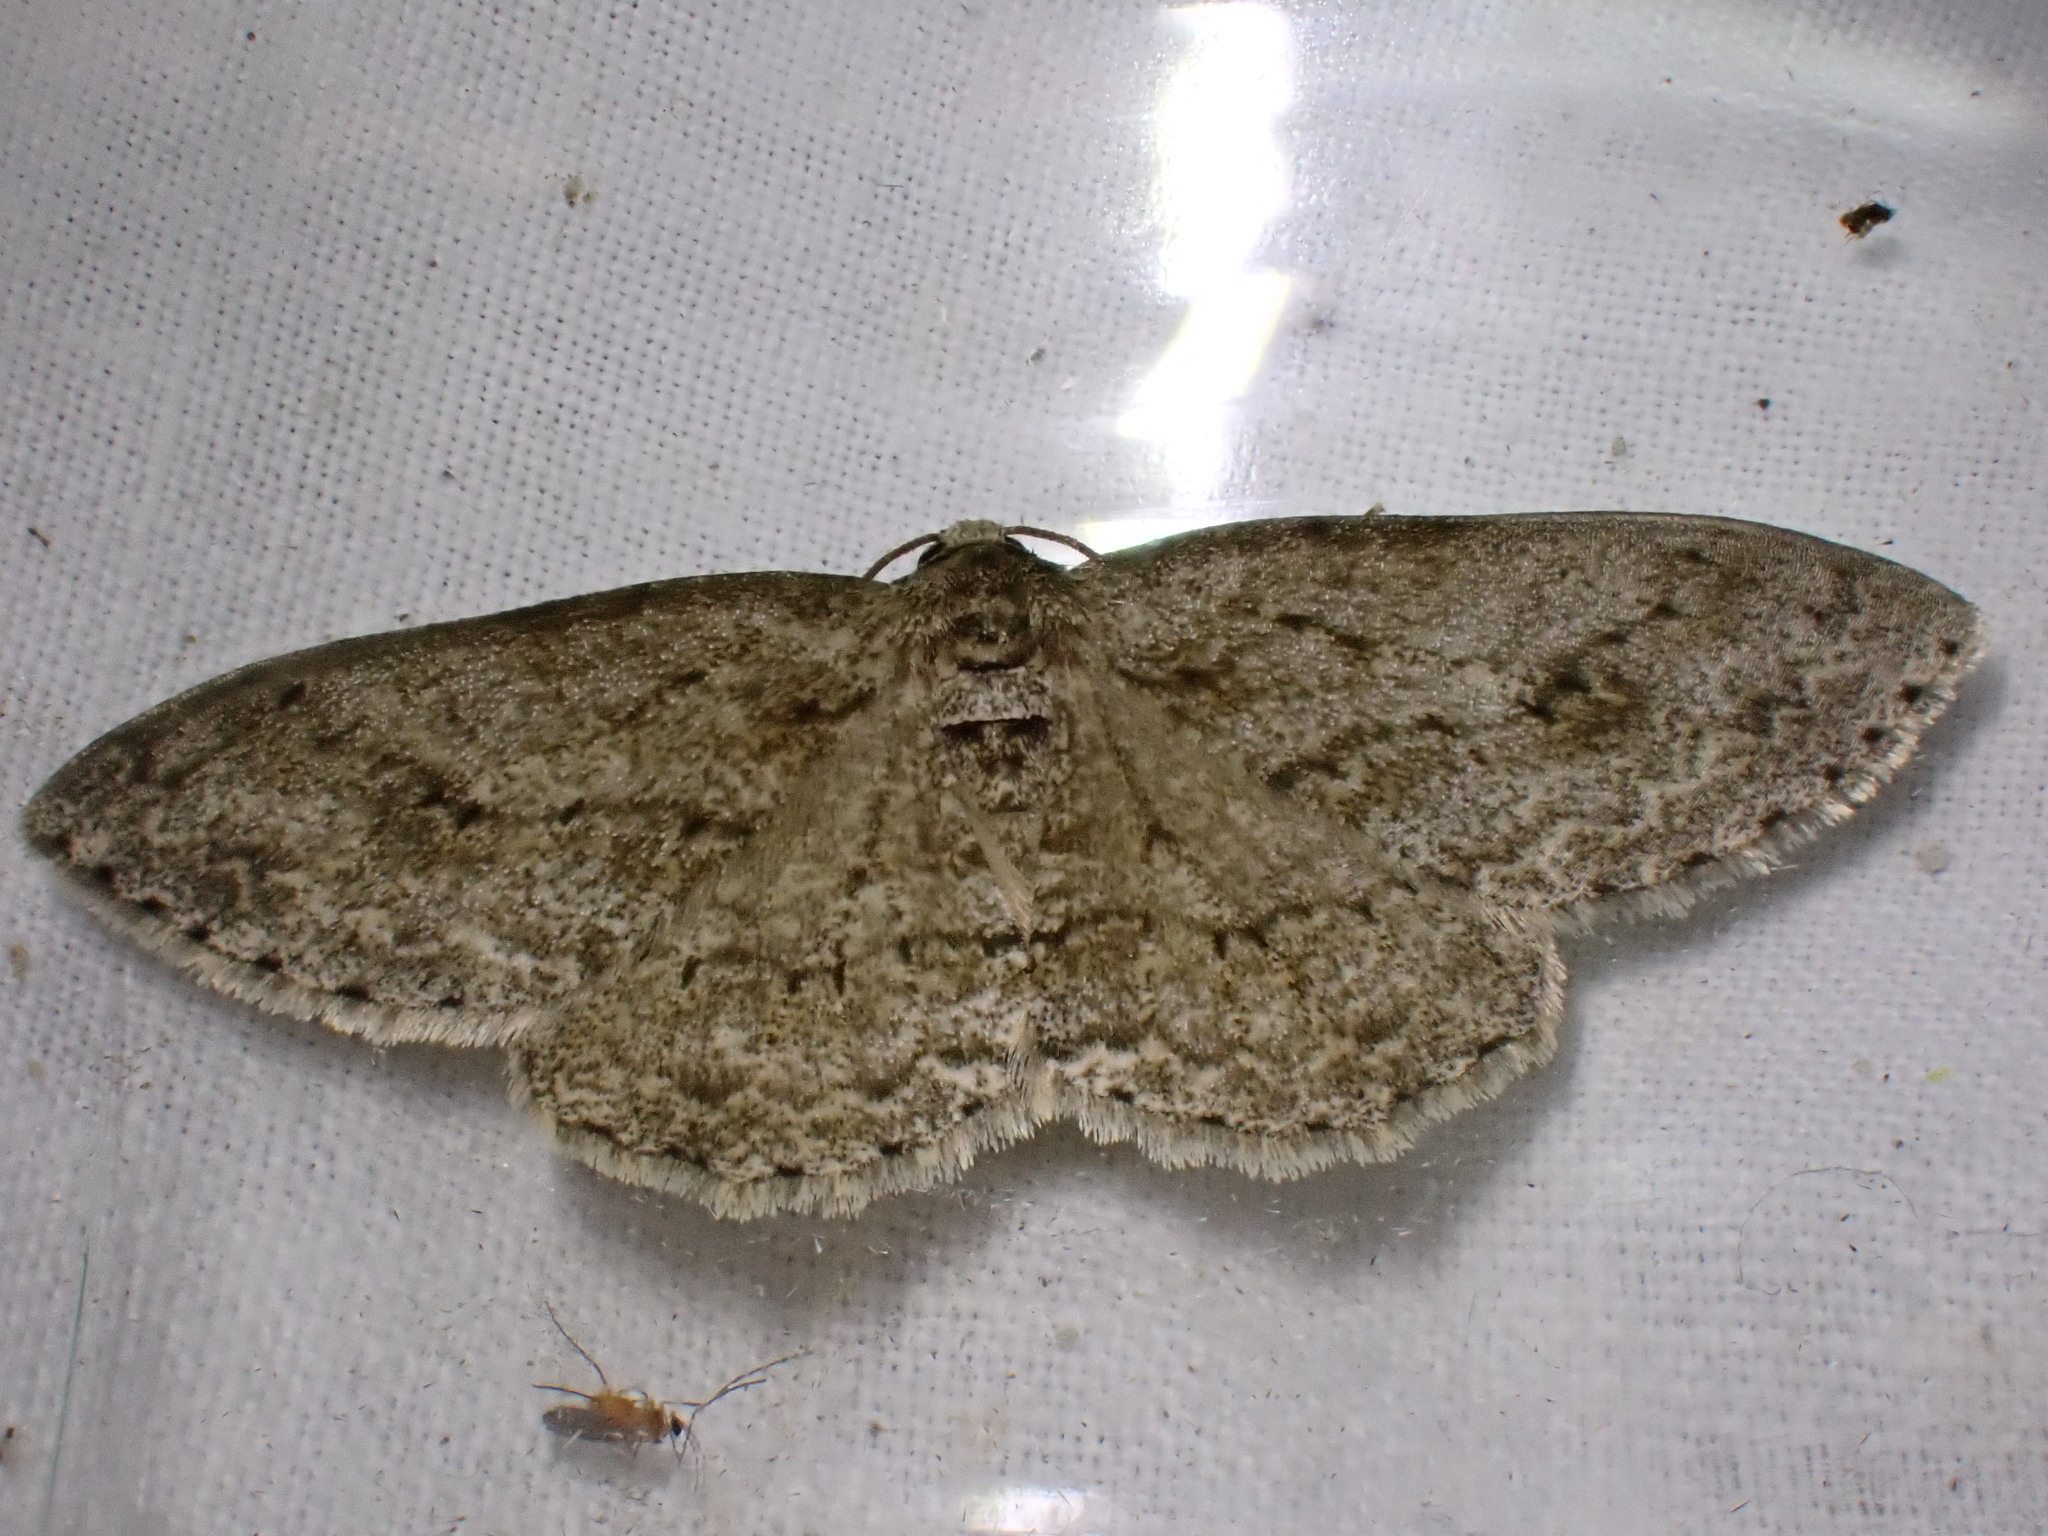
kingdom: Animalia
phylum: Arthropoda
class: Insecta
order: Lepidoptera
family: Geometridae
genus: Ectropis
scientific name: Ectropis crepuscularia
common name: Engrailed
